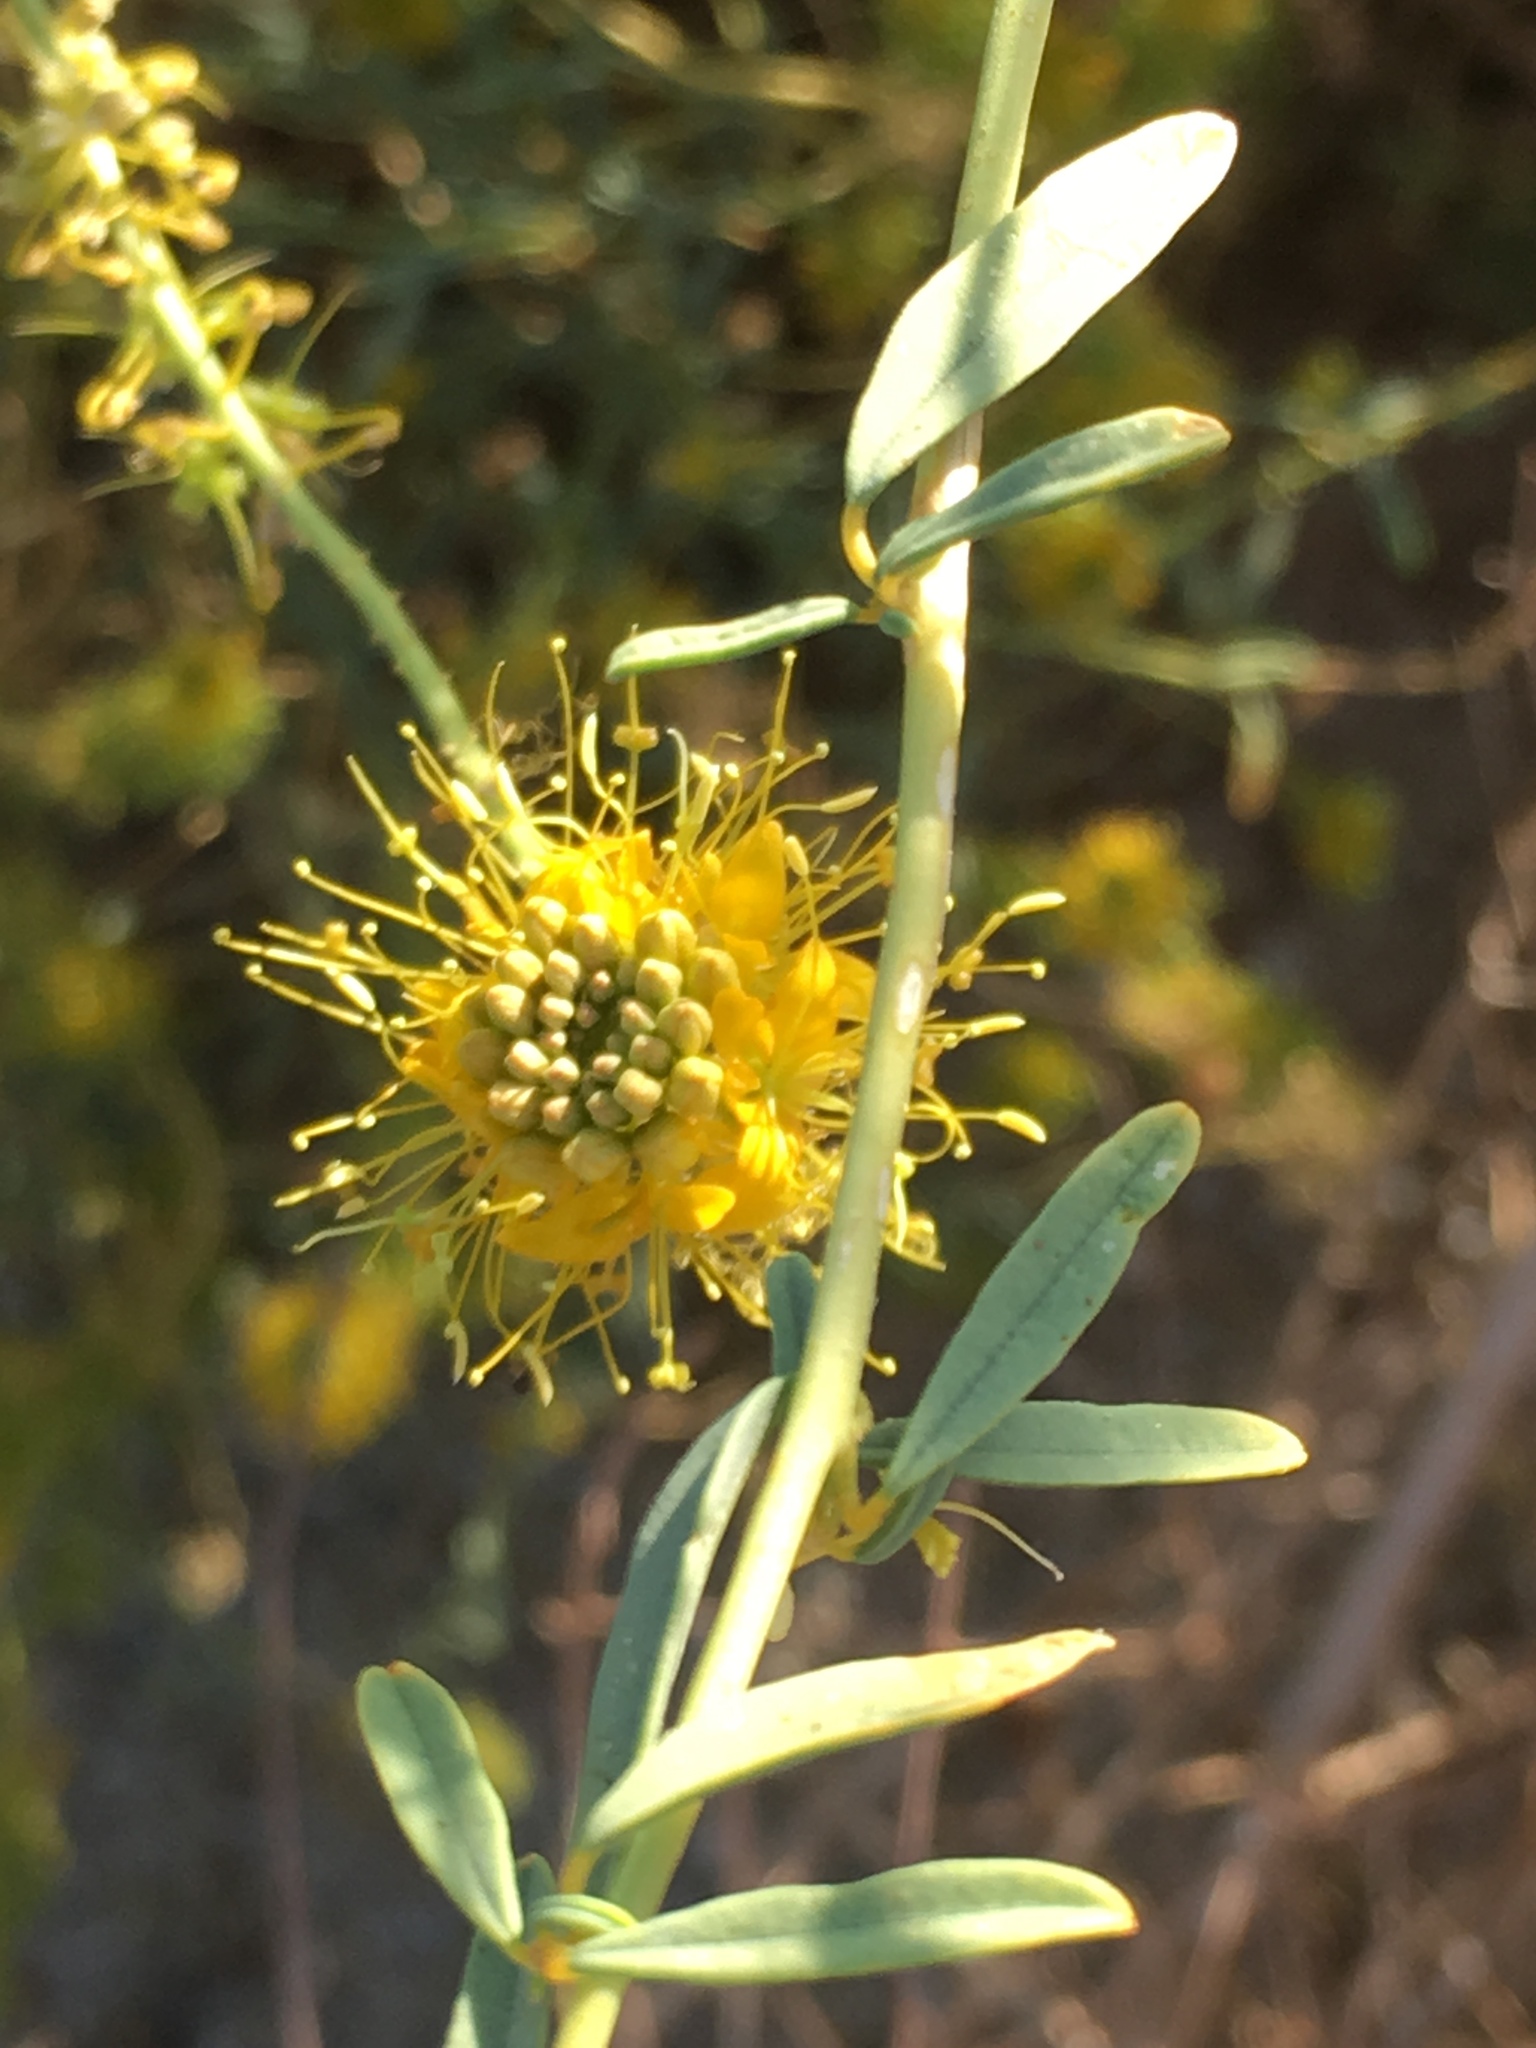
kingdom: Plantae
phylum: Tracheophyta
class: Magnoliopsida
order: Brassicales
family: Cleomaceae
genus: Cleomella
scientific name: Cleomella palmeri
